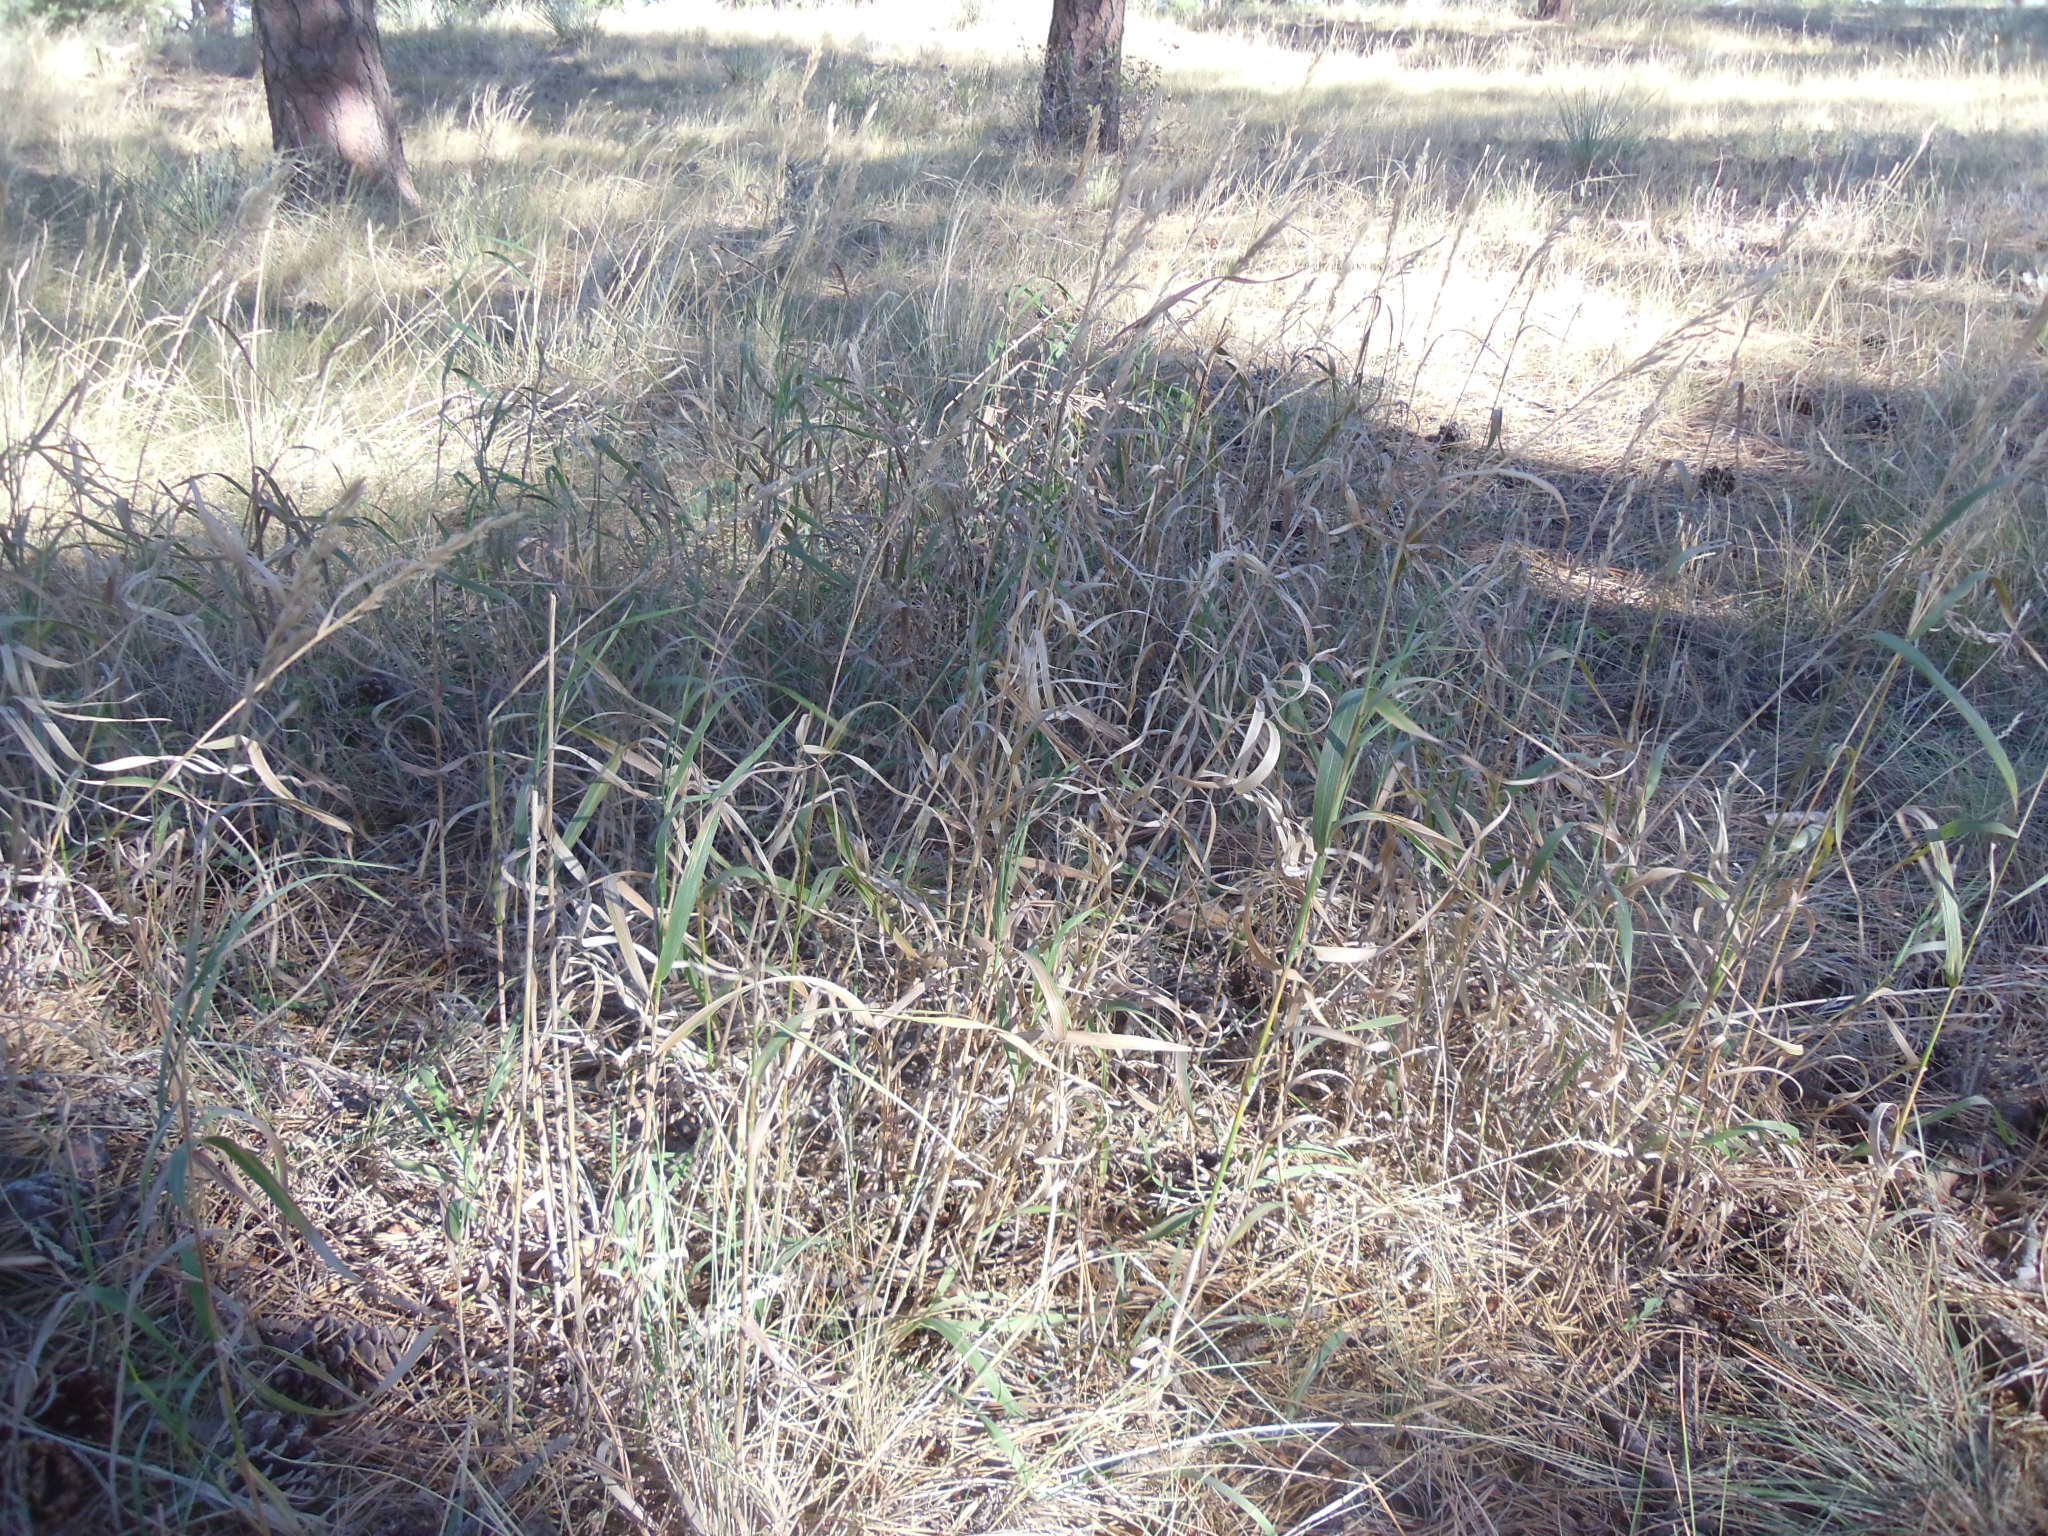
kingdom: Plantae
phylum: Tracheophyta
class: Liliopsida
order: Poales
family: Poaceae
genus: Bromus
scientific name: Bromus inermis
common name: Smooth brome
